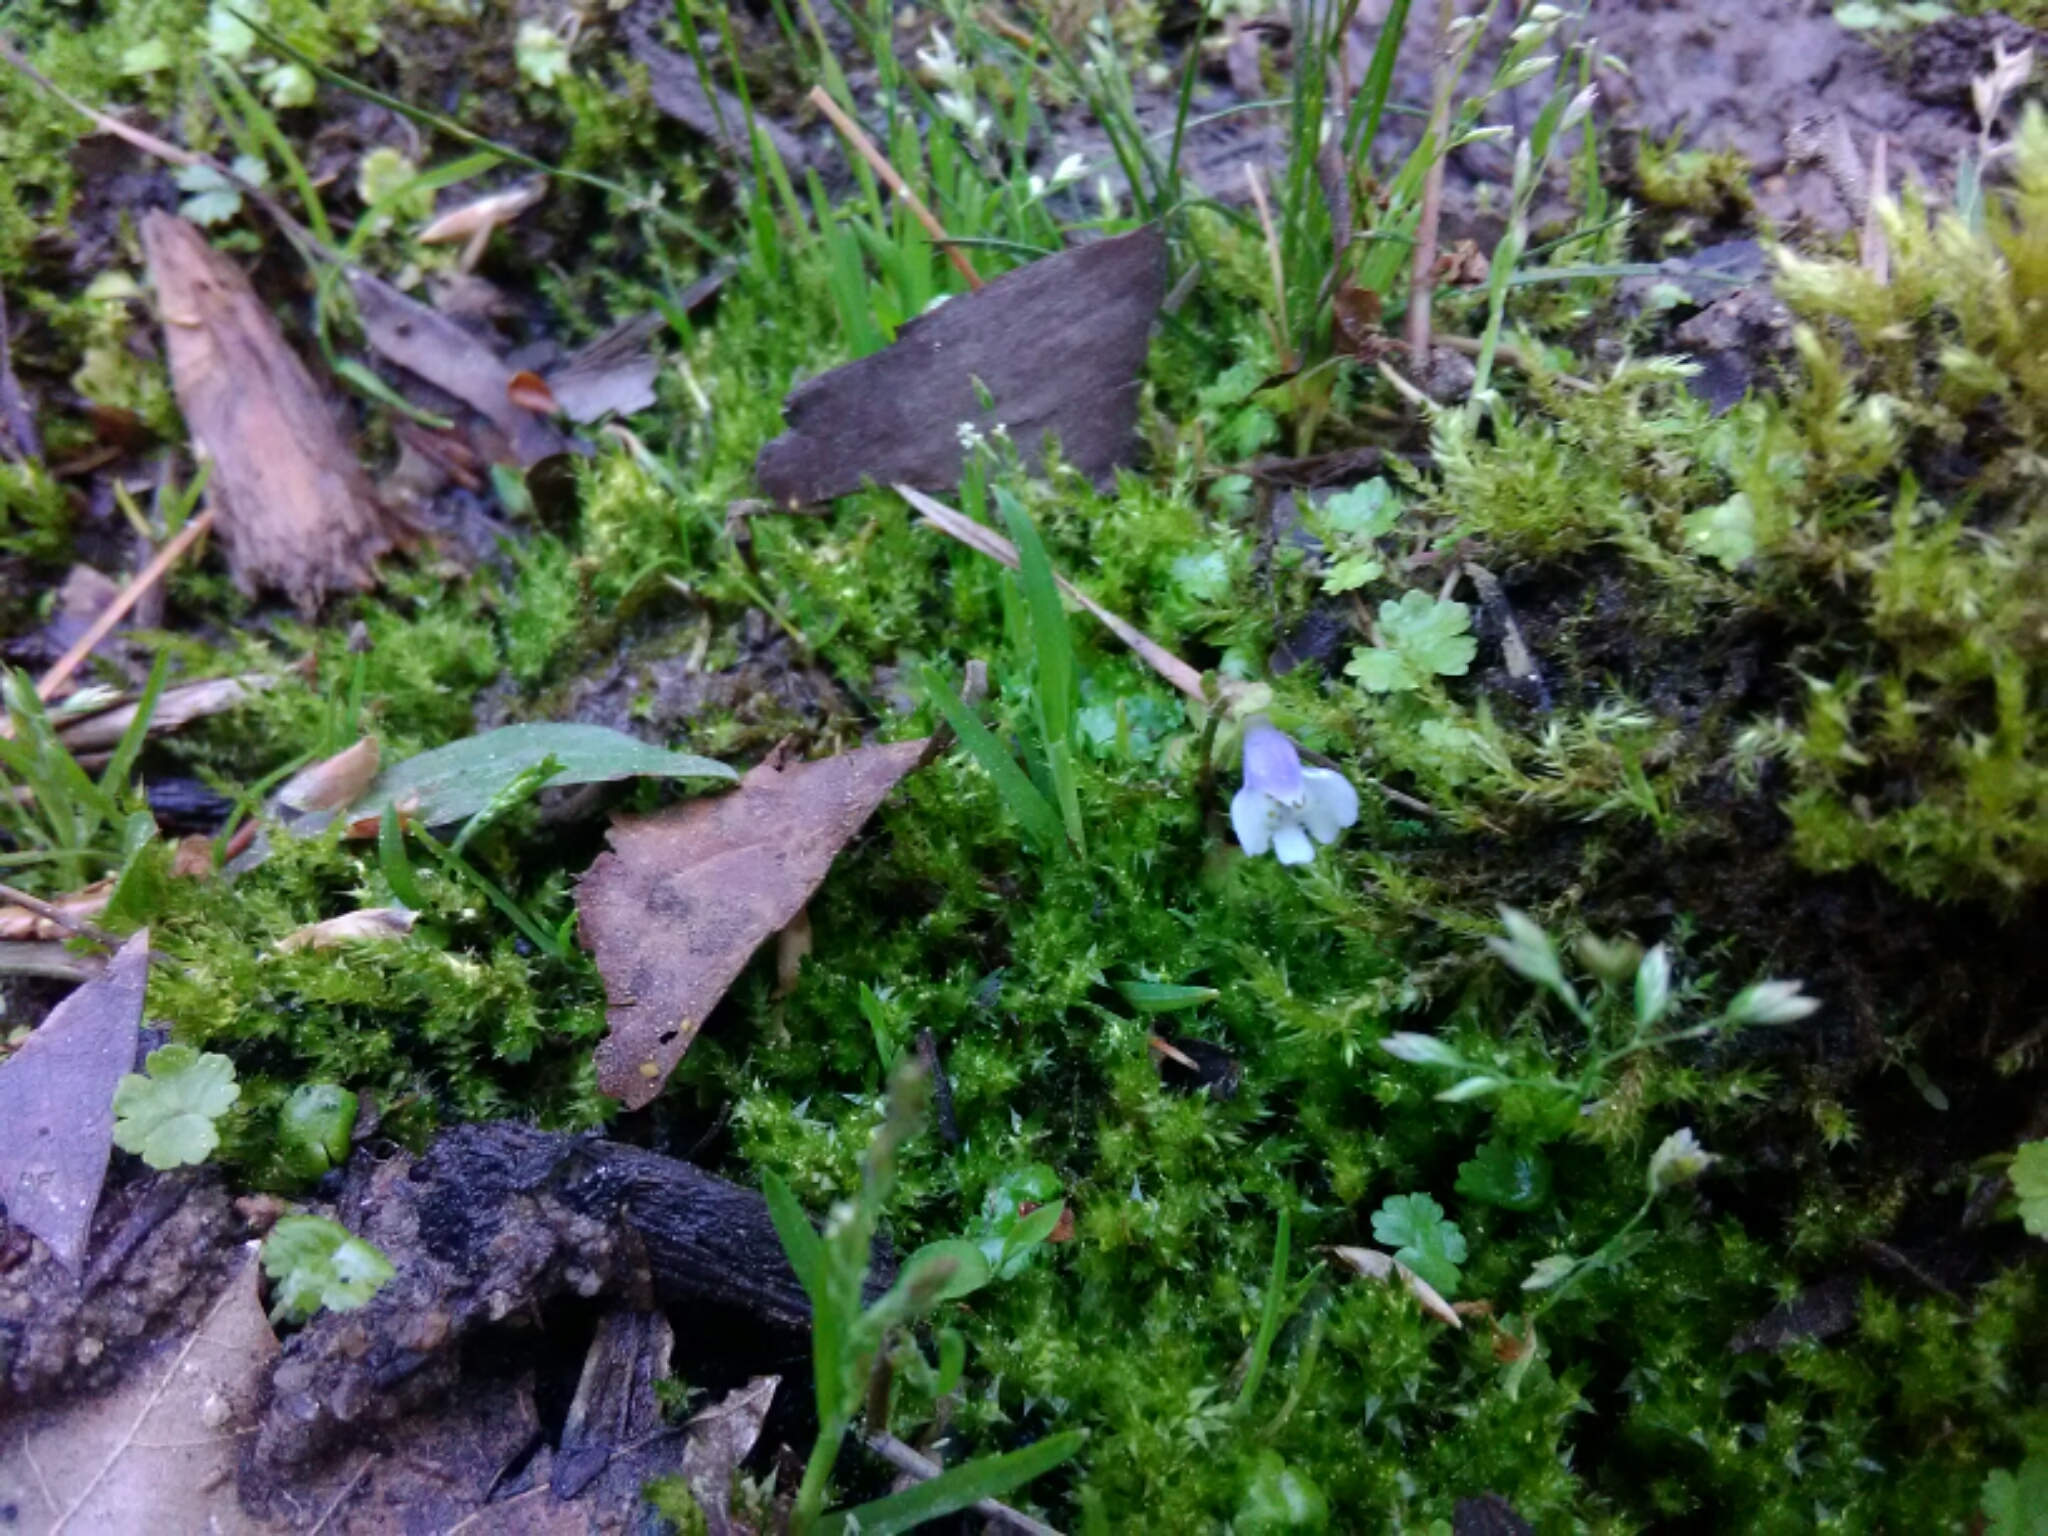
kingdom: Plantae
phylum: Tracheophyta
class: Magnoliopsida
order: Lamiales
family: Mazaceae
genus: Mazus
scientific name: Mazus pumilus
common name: Japanese mazus
